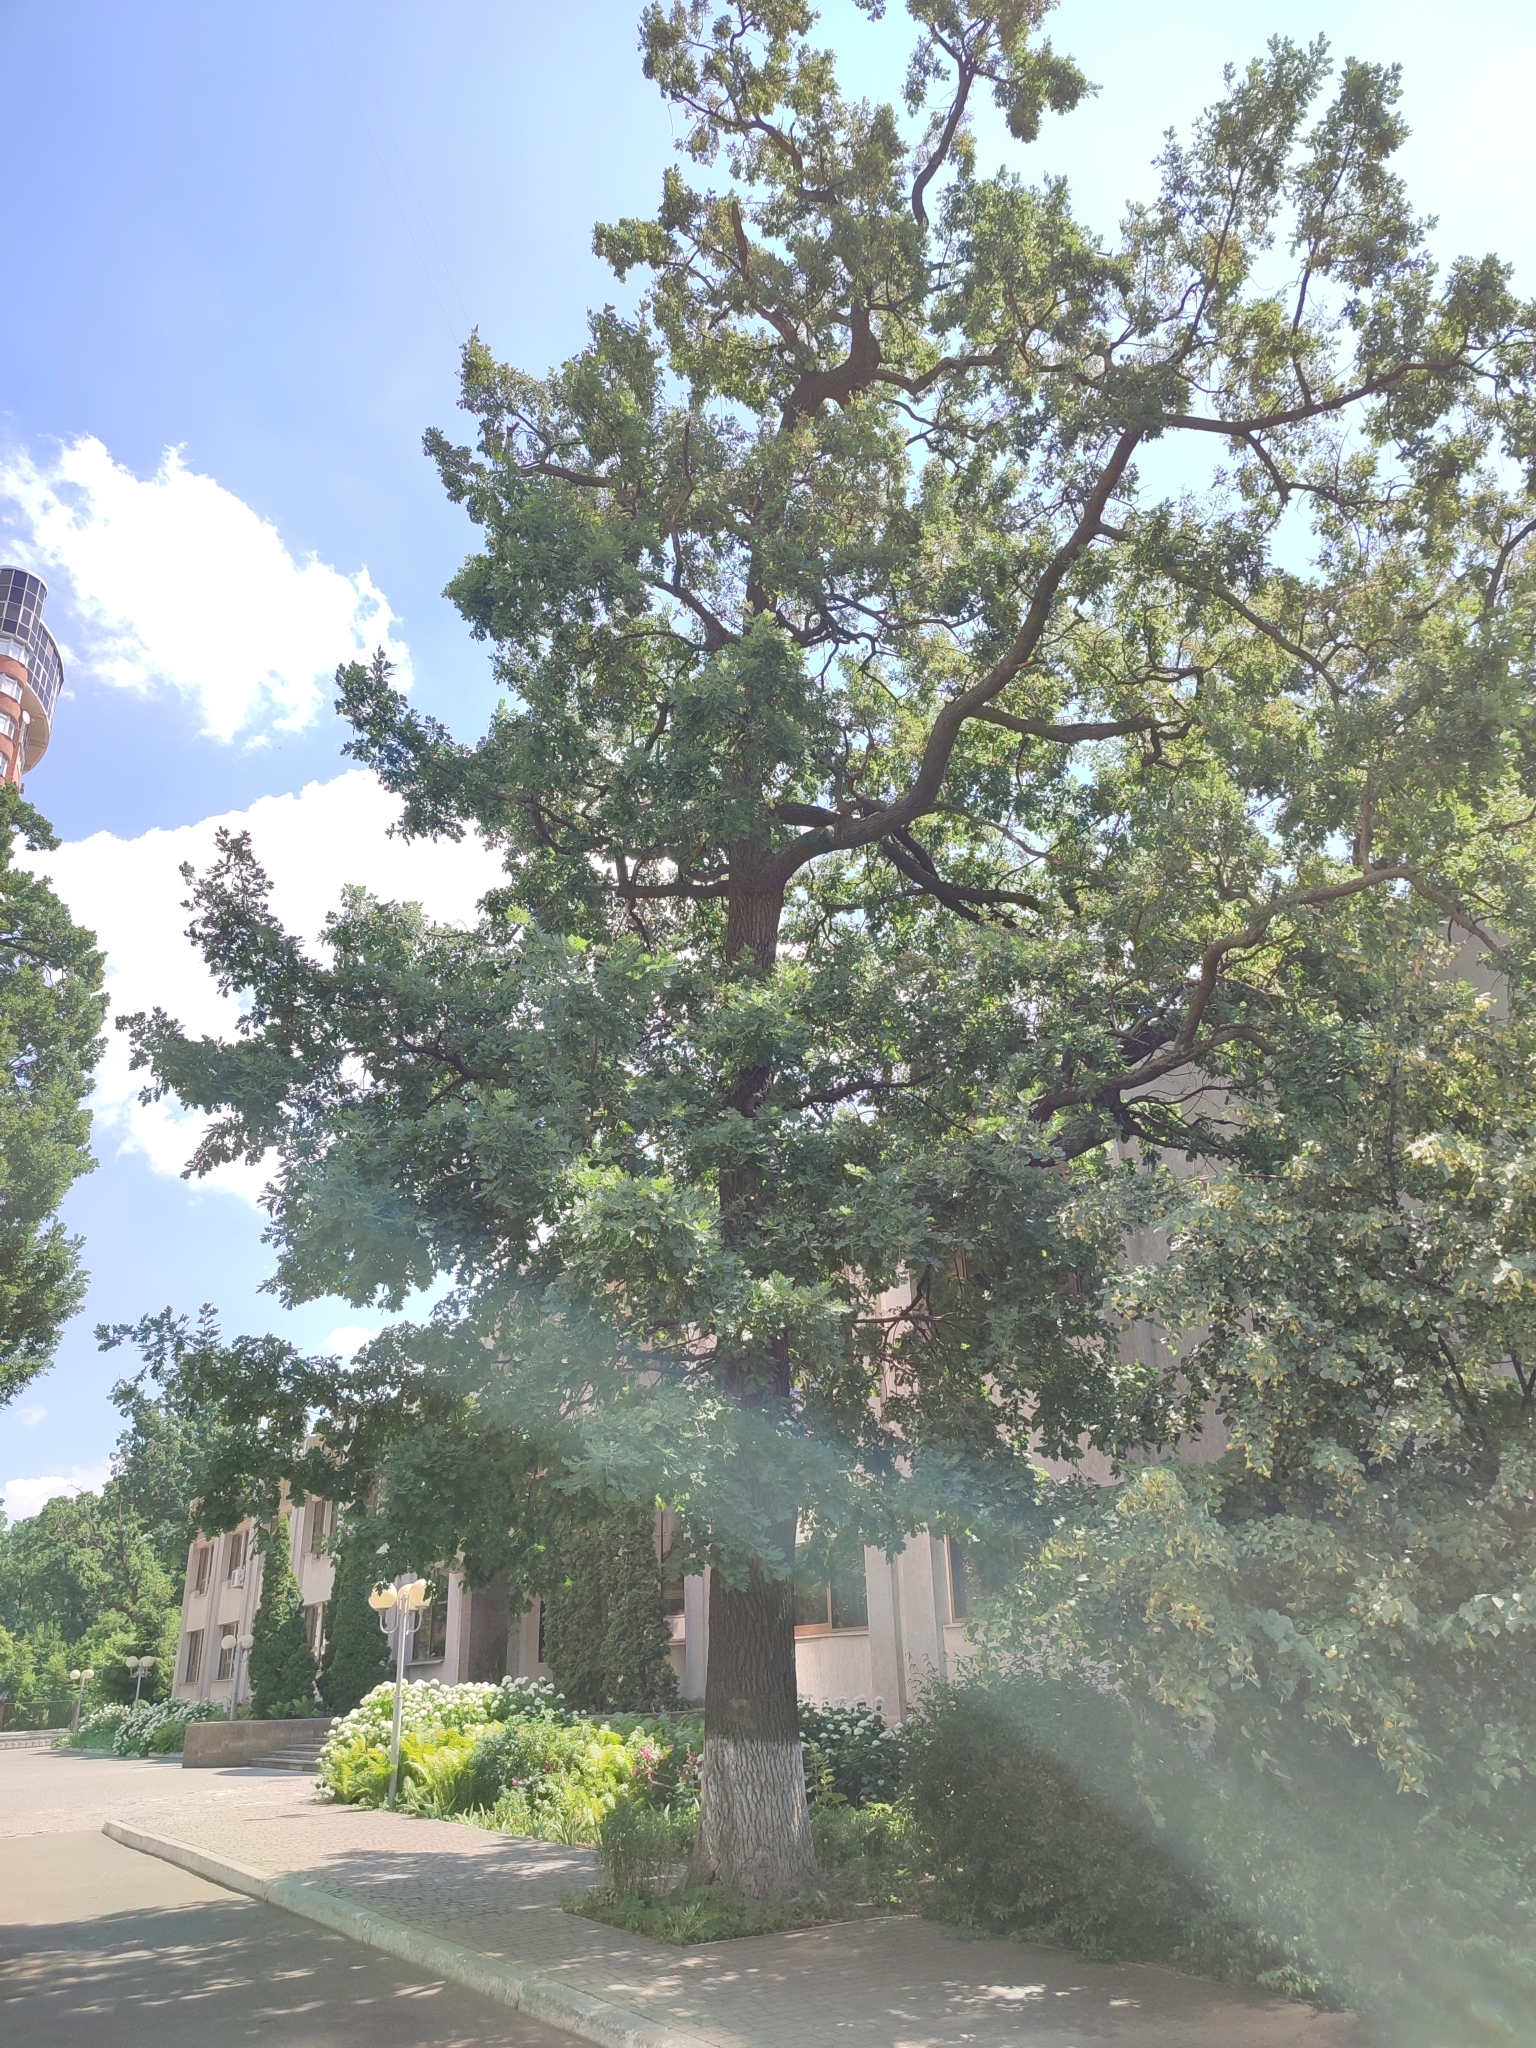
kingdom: Plantae
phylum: Tracheophyta
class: Magnoliopsida
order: Fagales
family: Fagaceae
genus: Quercus
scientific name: Quercus robur
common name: Pedunculate oak
